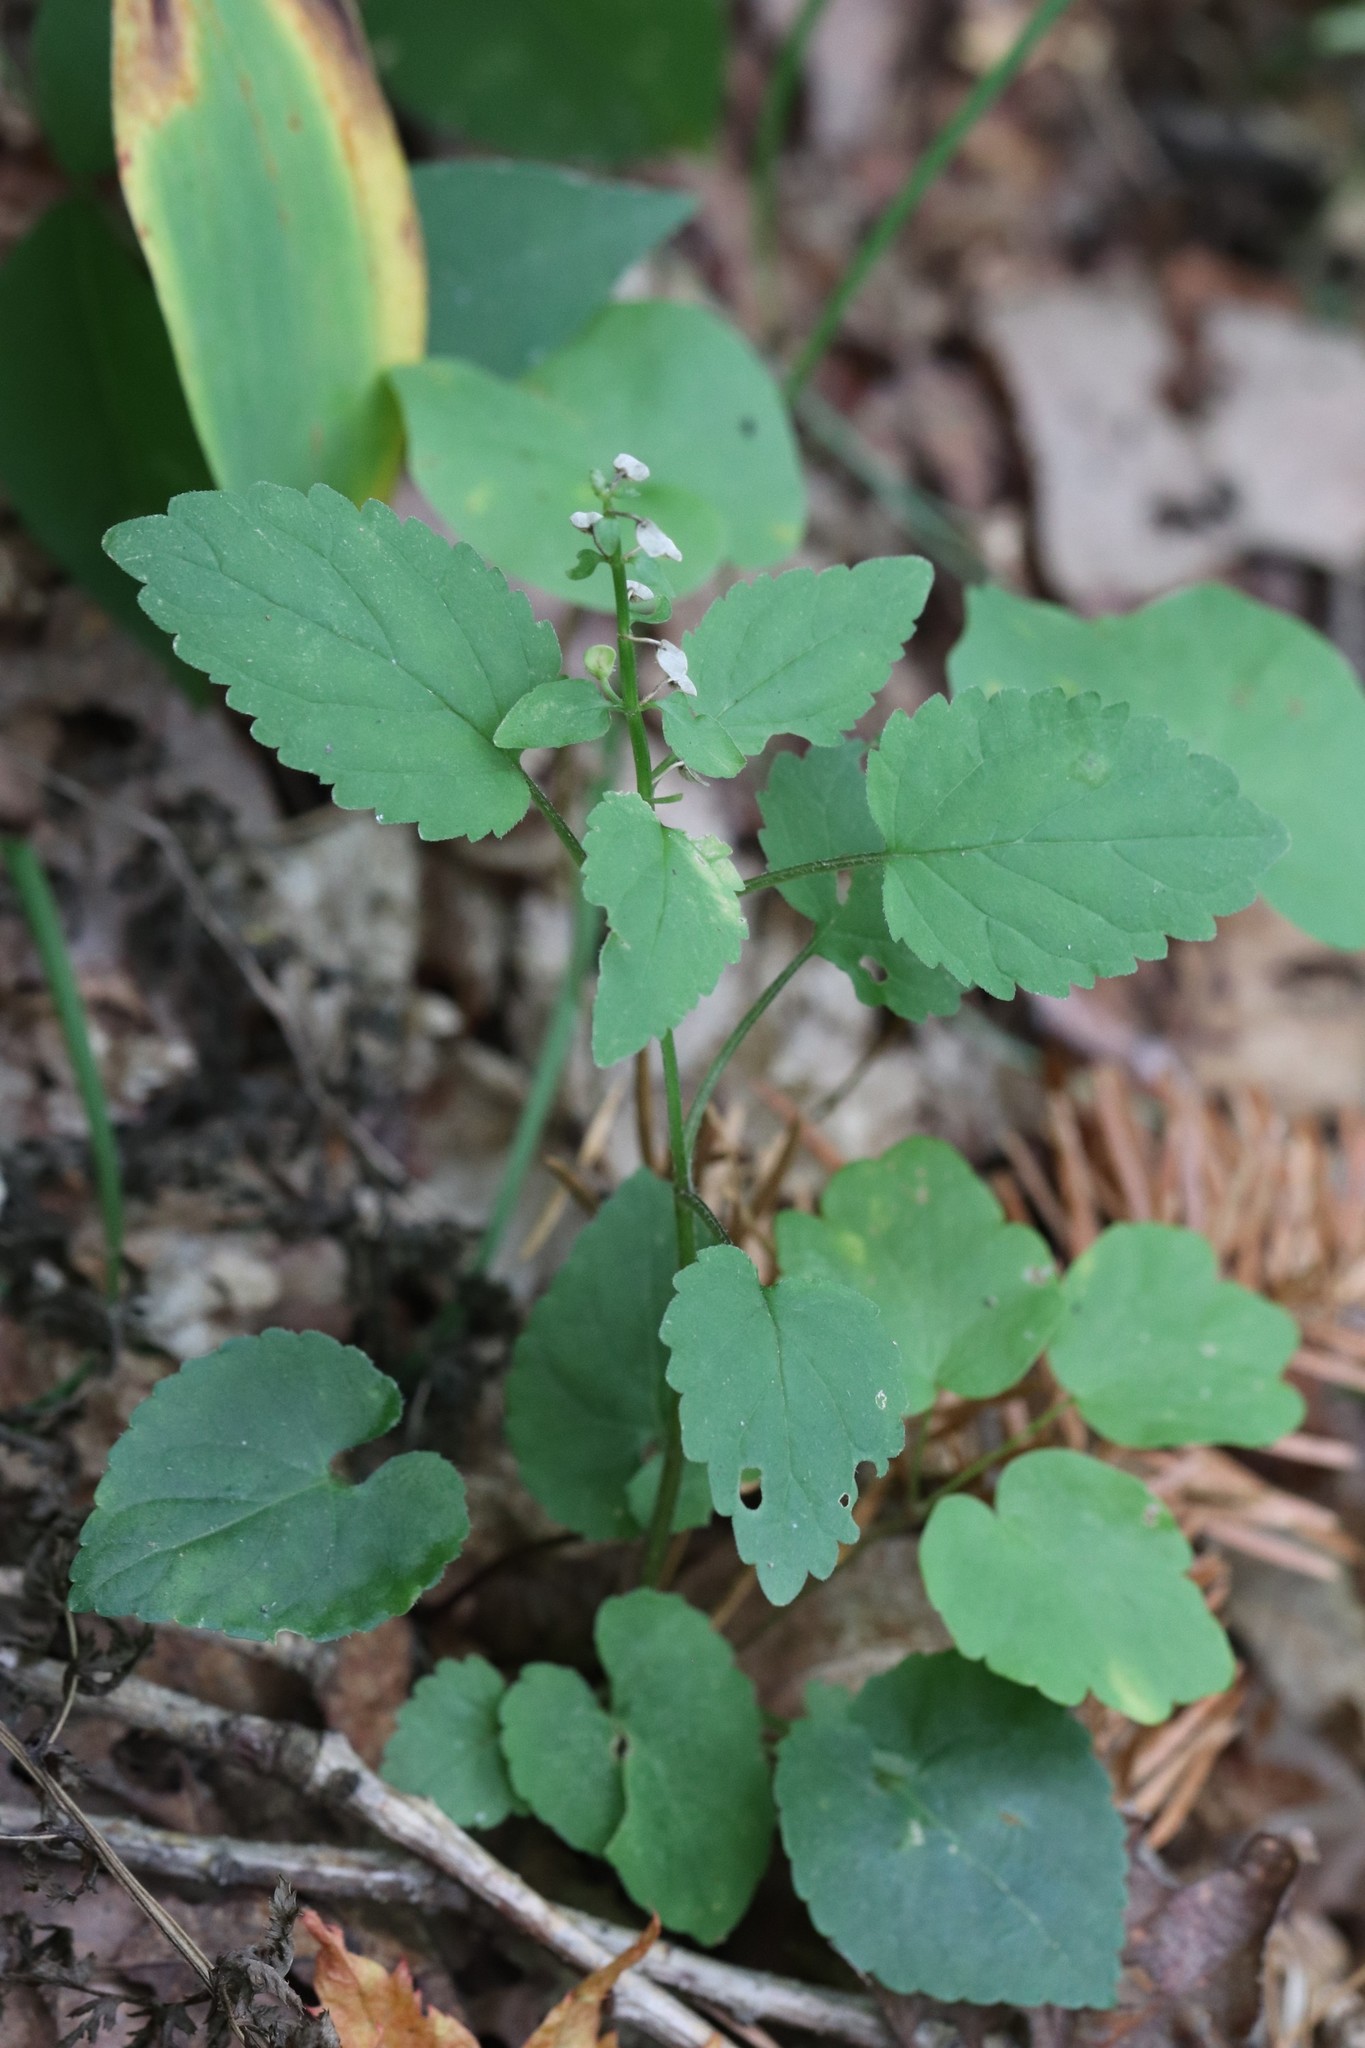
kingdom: Plantae
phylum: Tracheophyta
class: Magnoliopsida
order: Lamiales
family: Lamiaceae
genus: Scutellaria
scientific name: Scutellaria pekinensis
